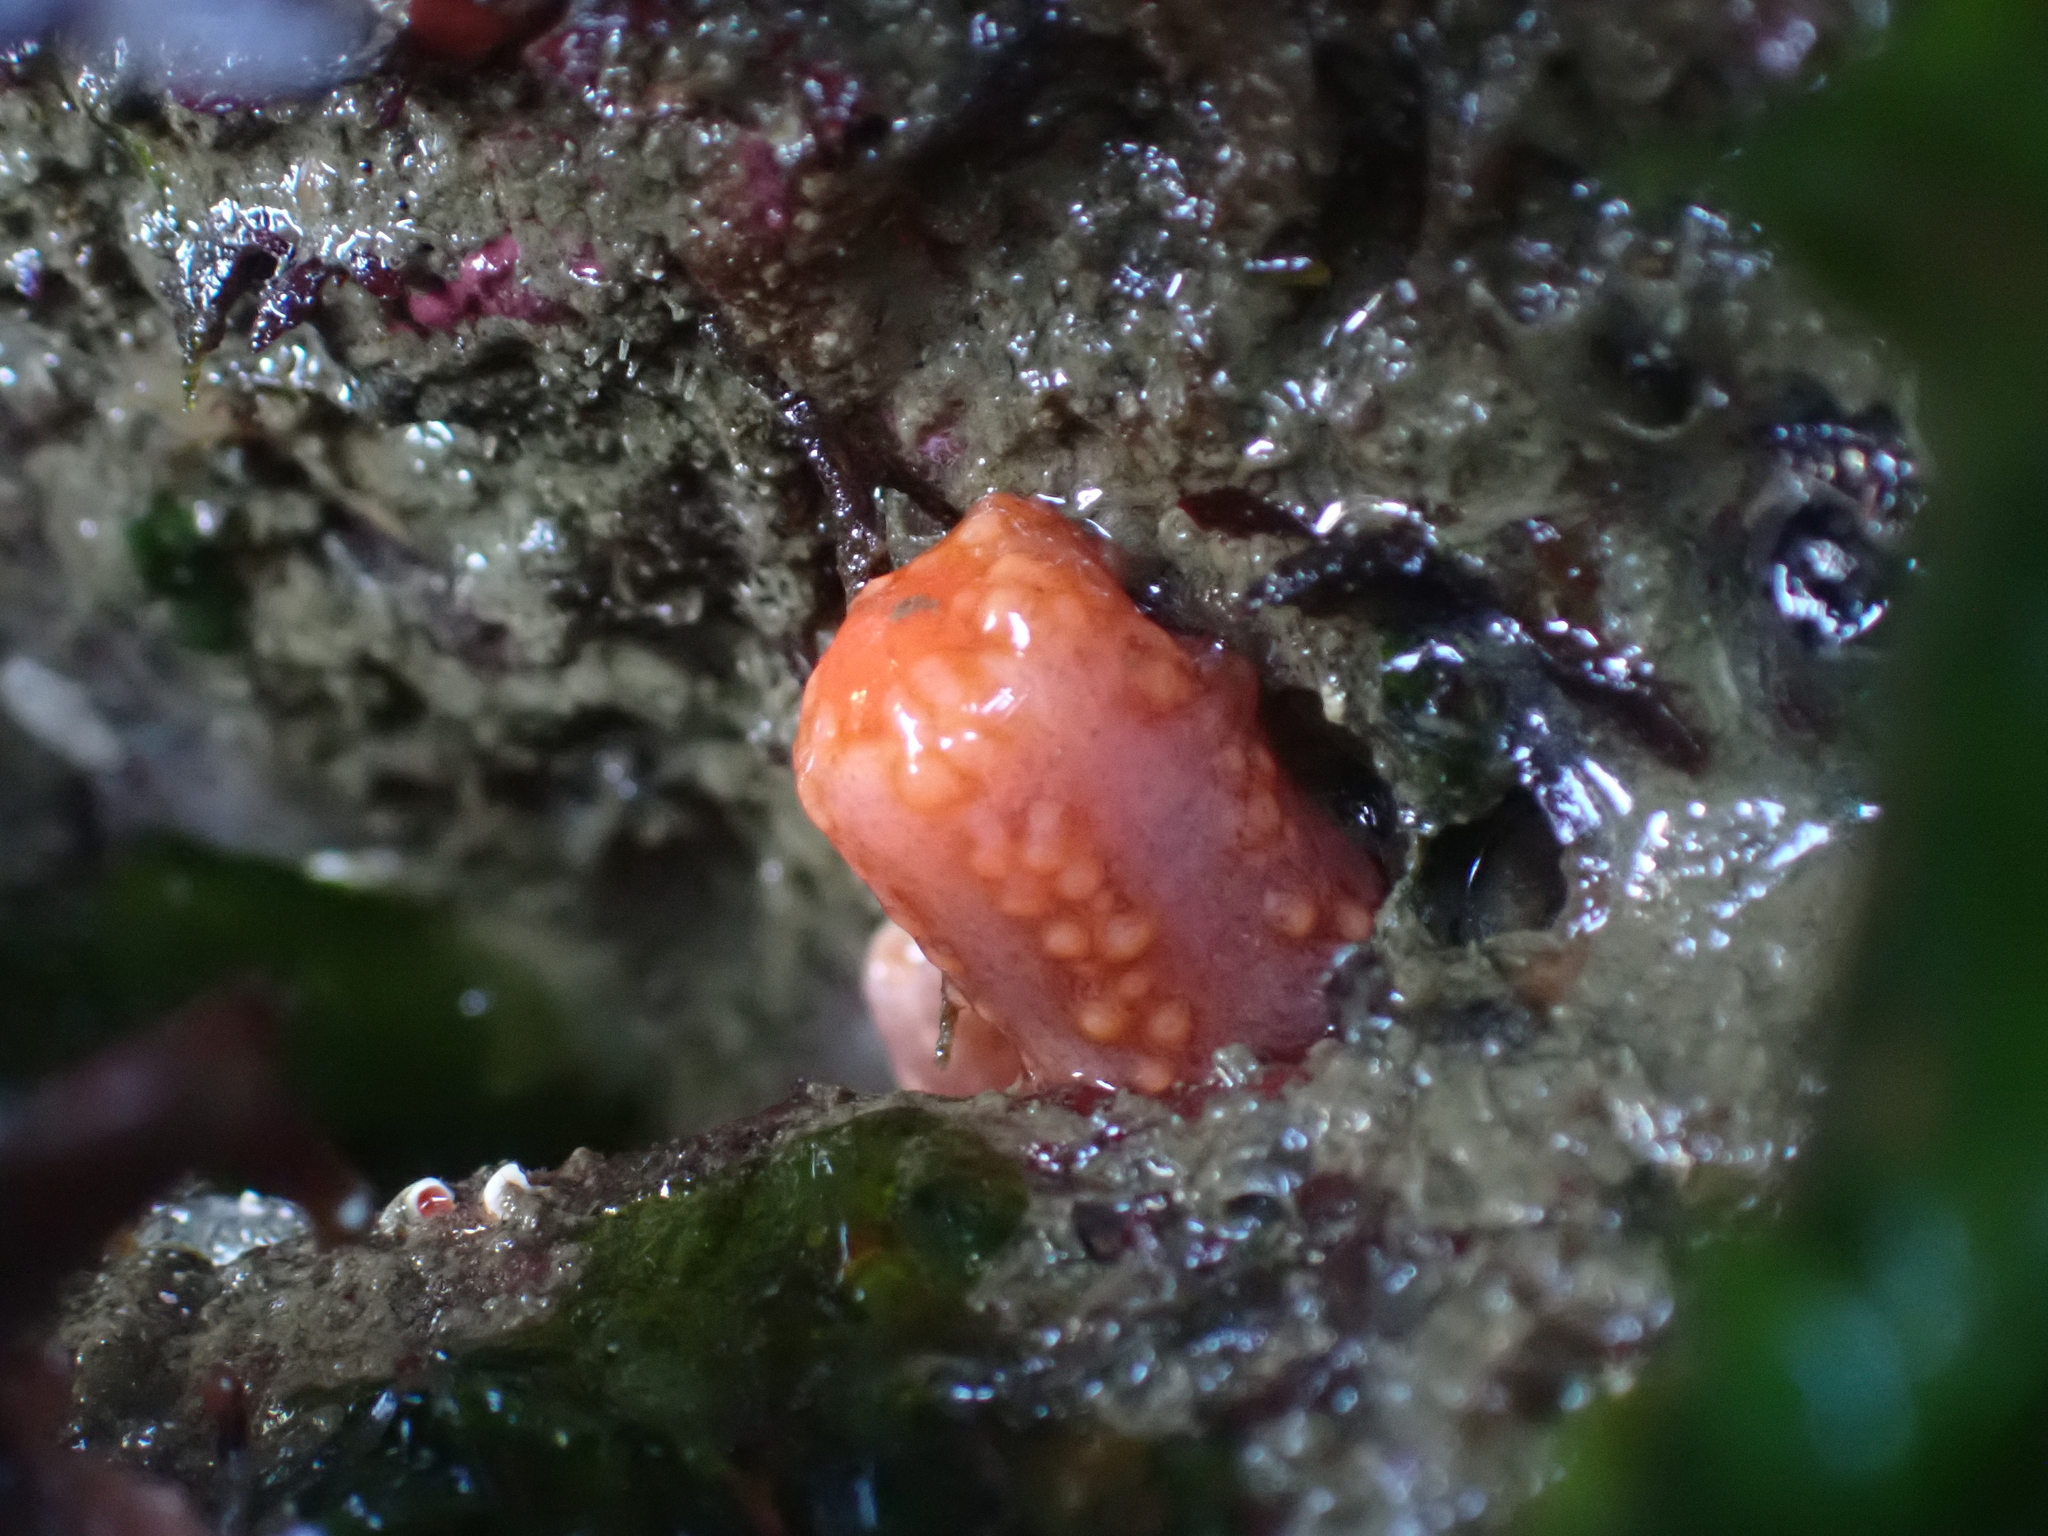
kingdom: Animalia
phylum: Echinodermata
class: Holothuroidea
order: Dendrochirotida
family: Cucumariidae
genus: Cucumaria
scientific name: Cucumaria miniata
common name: Orange sea cucumber
